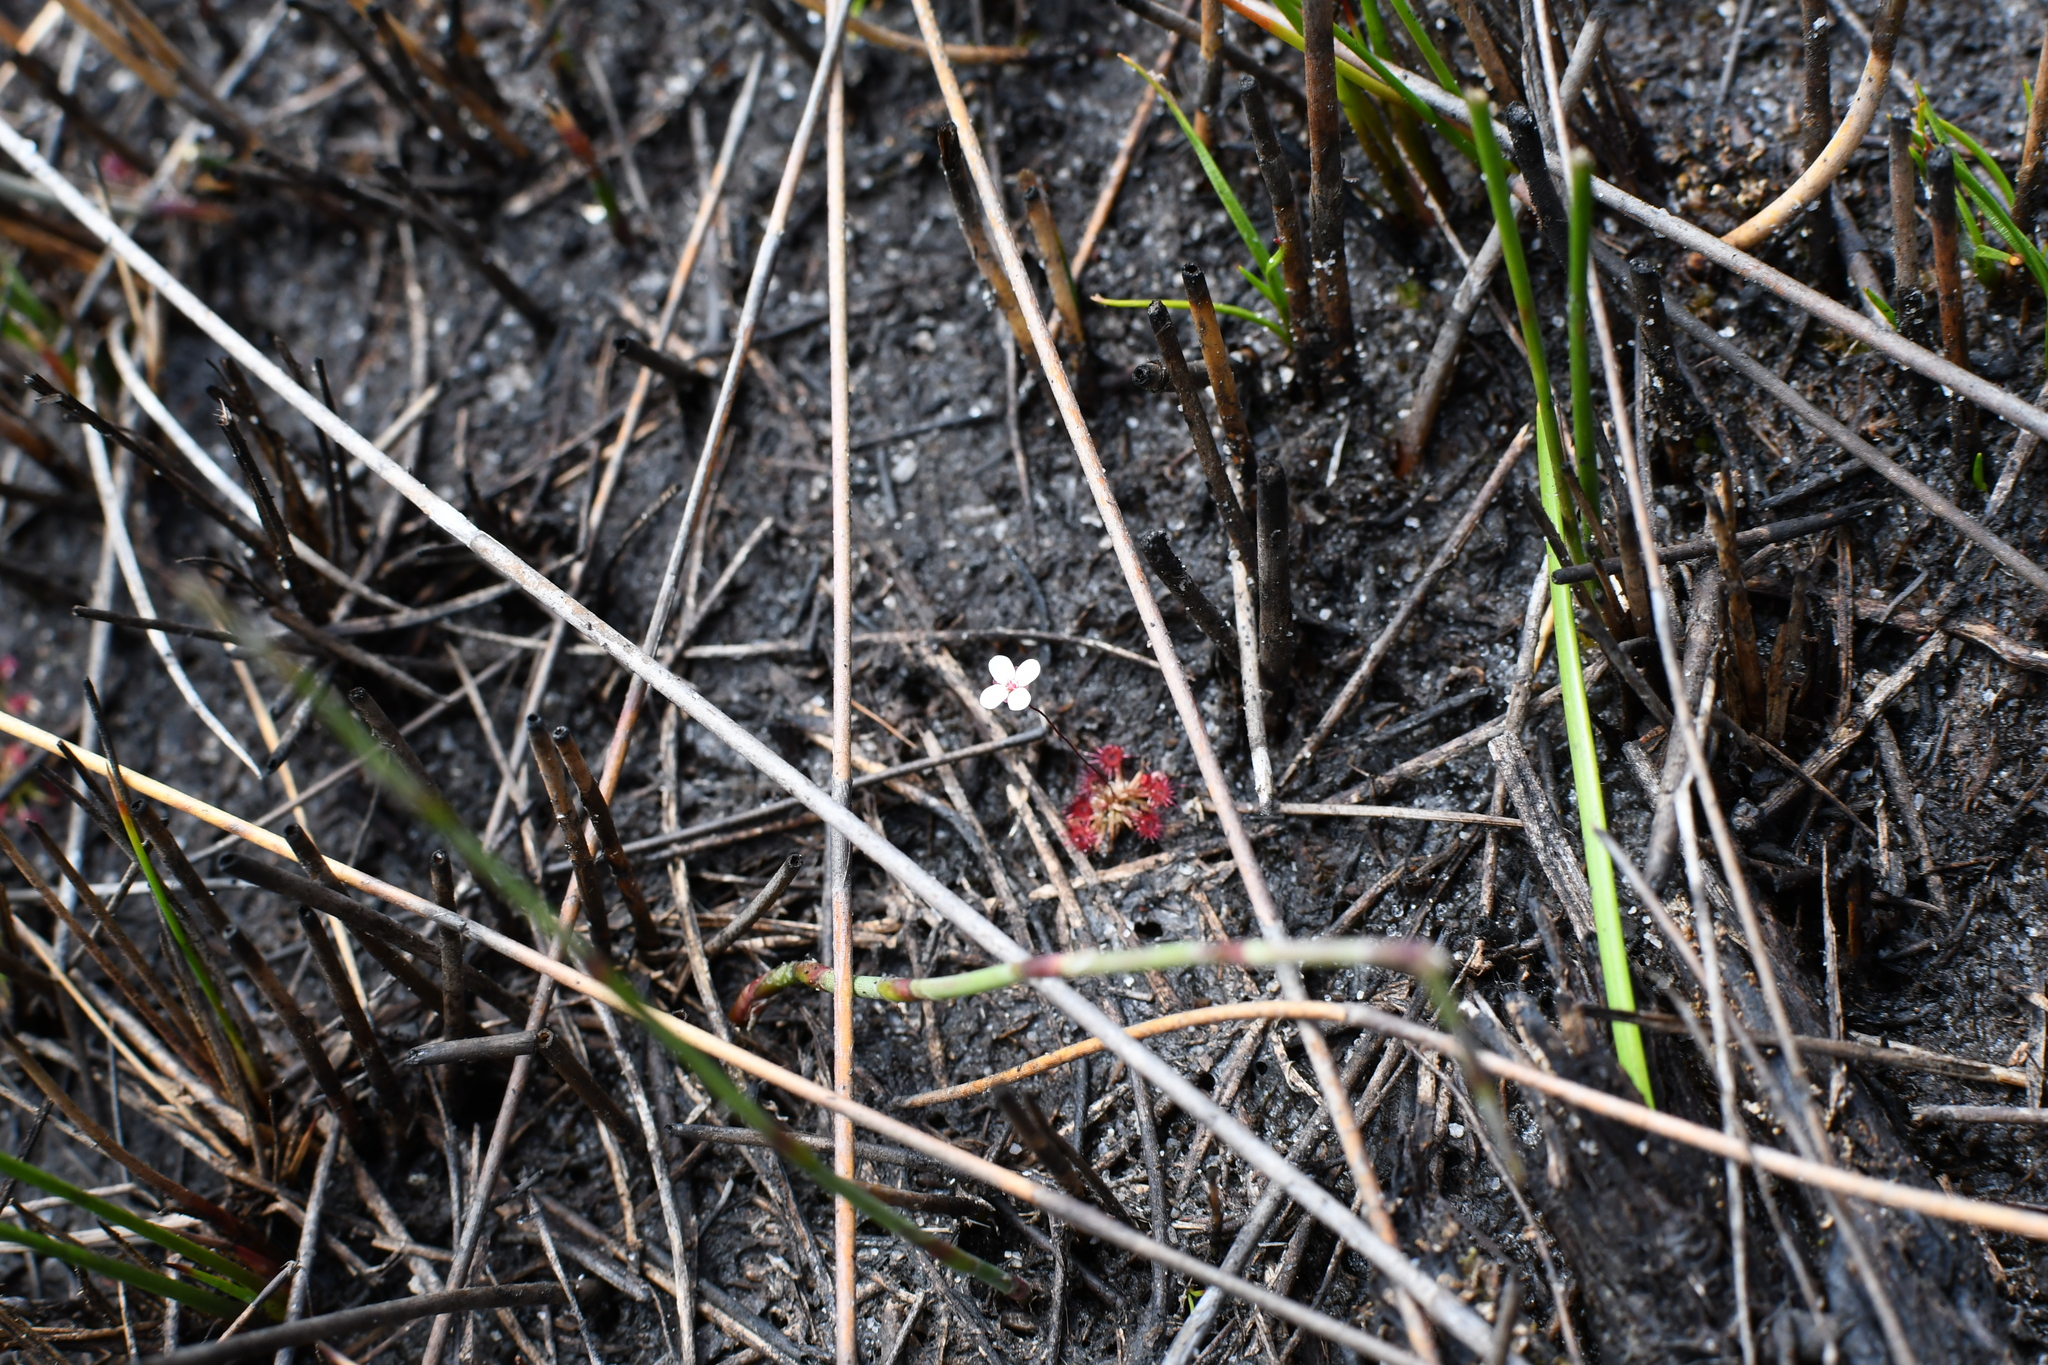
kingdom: Plantae
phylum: Tracheophyta
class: Magnoliopsida
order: Caryophyllales
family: Droseraceae
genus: Drosera
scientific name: Drosera pygmaea
